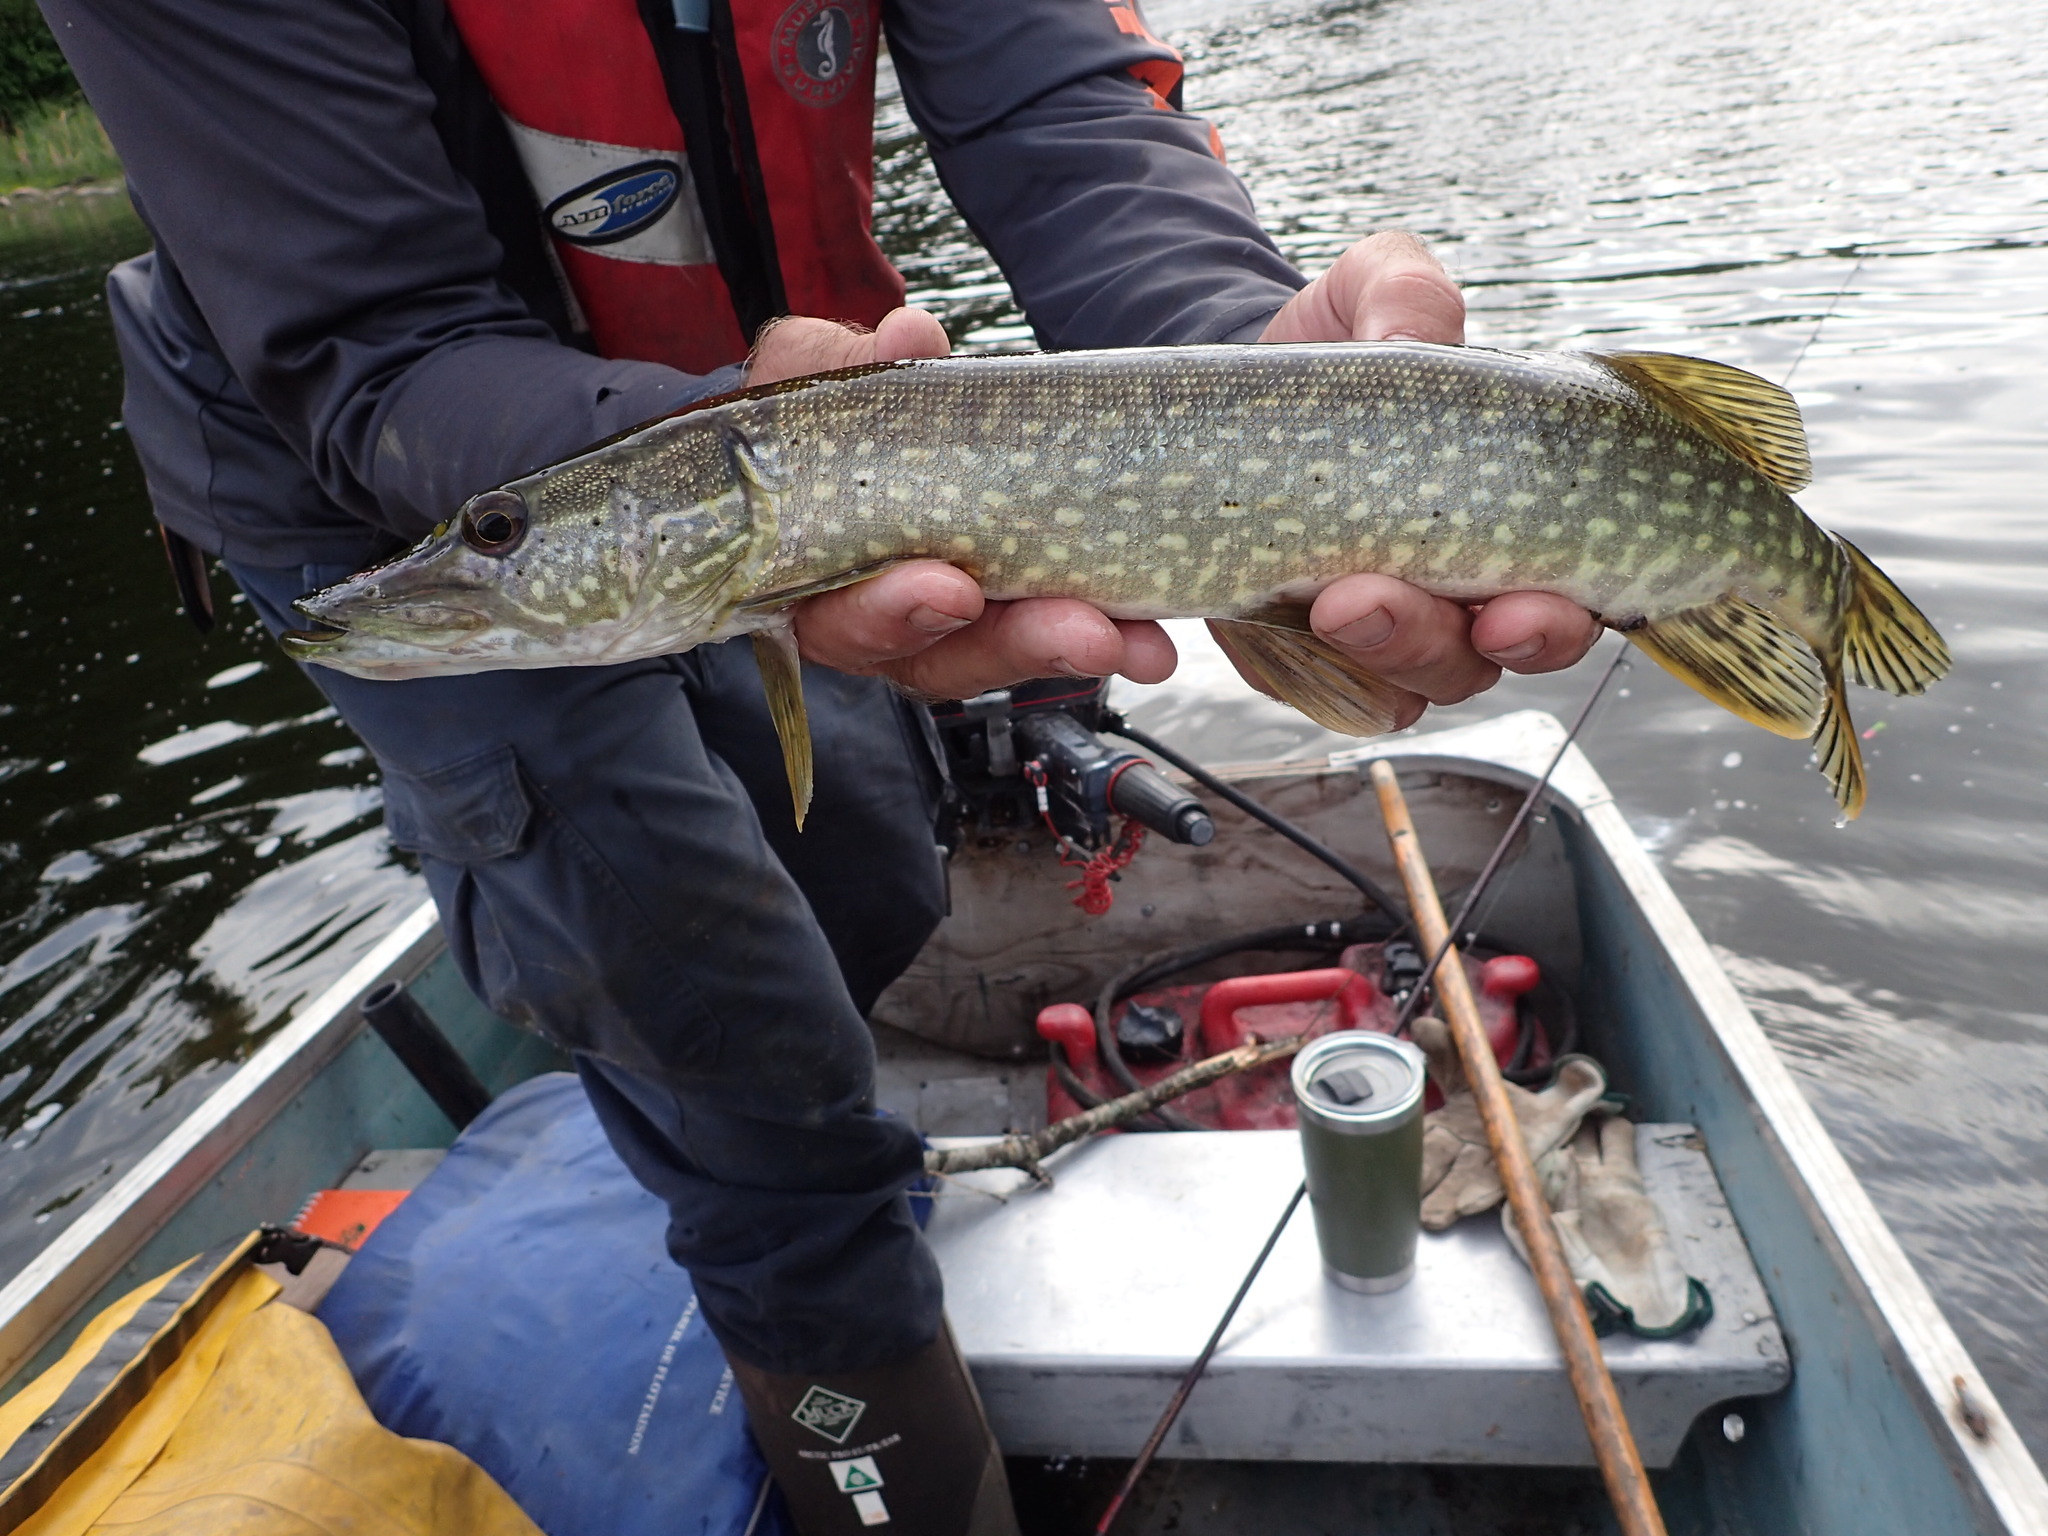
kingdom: Animalia
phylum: Chordata
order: Esociformes
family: Esocidae
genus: Esox
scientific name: Esox lucius
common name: Northern pike
